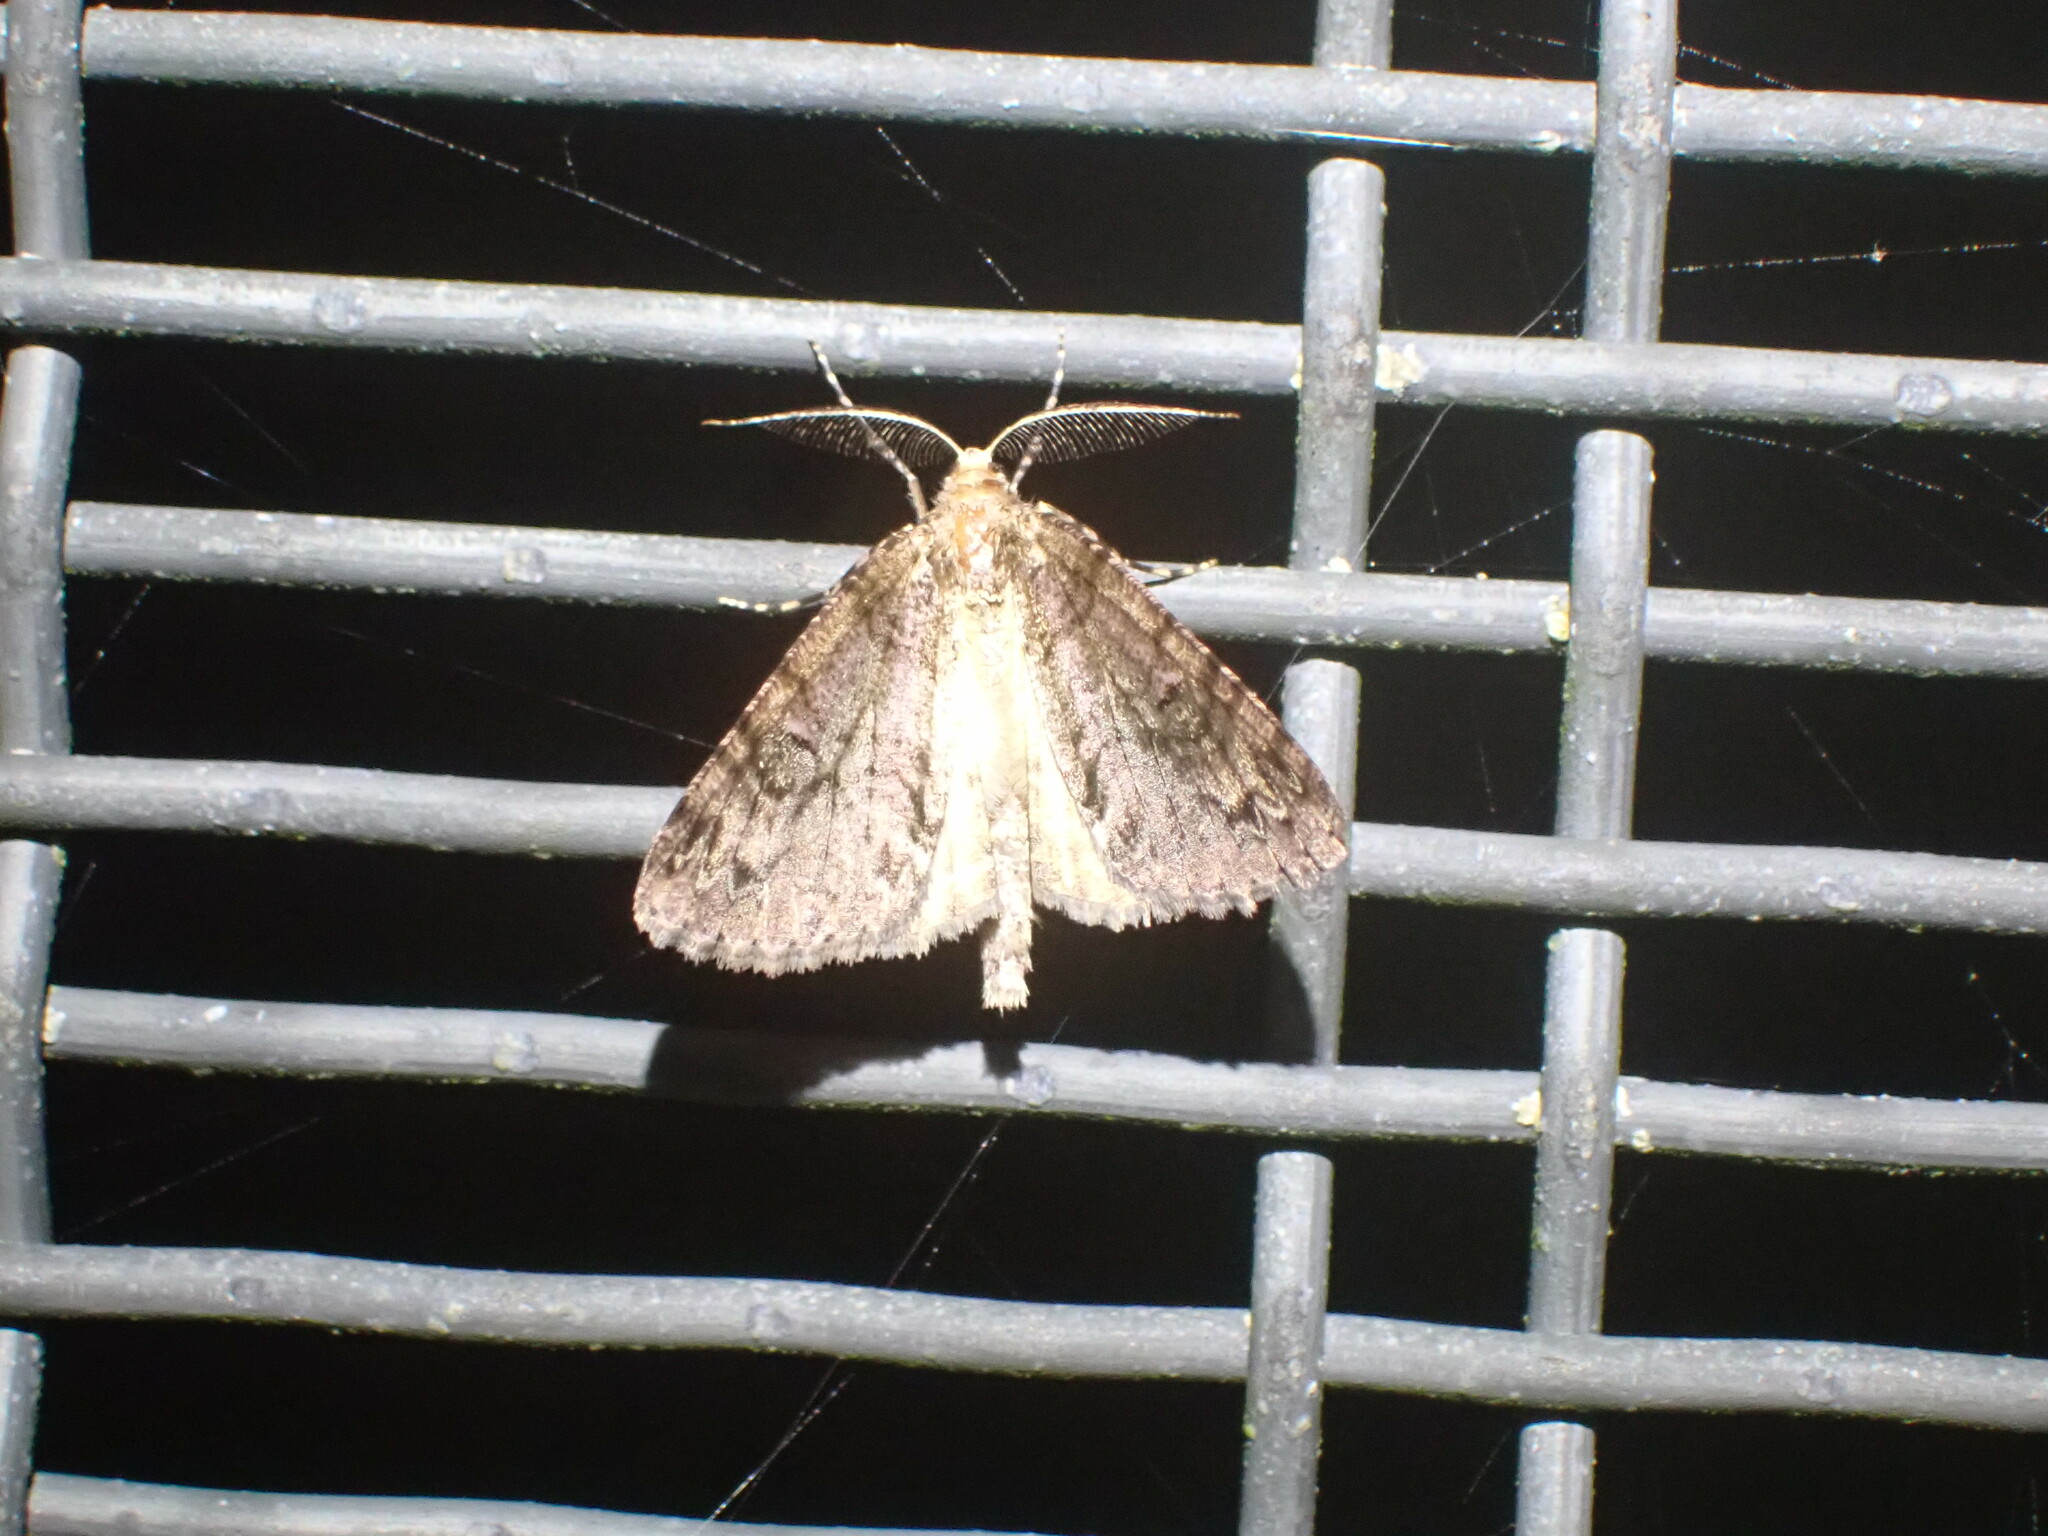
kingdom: Animalia
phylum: Arthropoda
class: Insecta
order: Lepidoptera
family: Geometridae
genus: Pseudocoremia
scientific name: Pseudocoremia suavis
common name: Common forest looper
